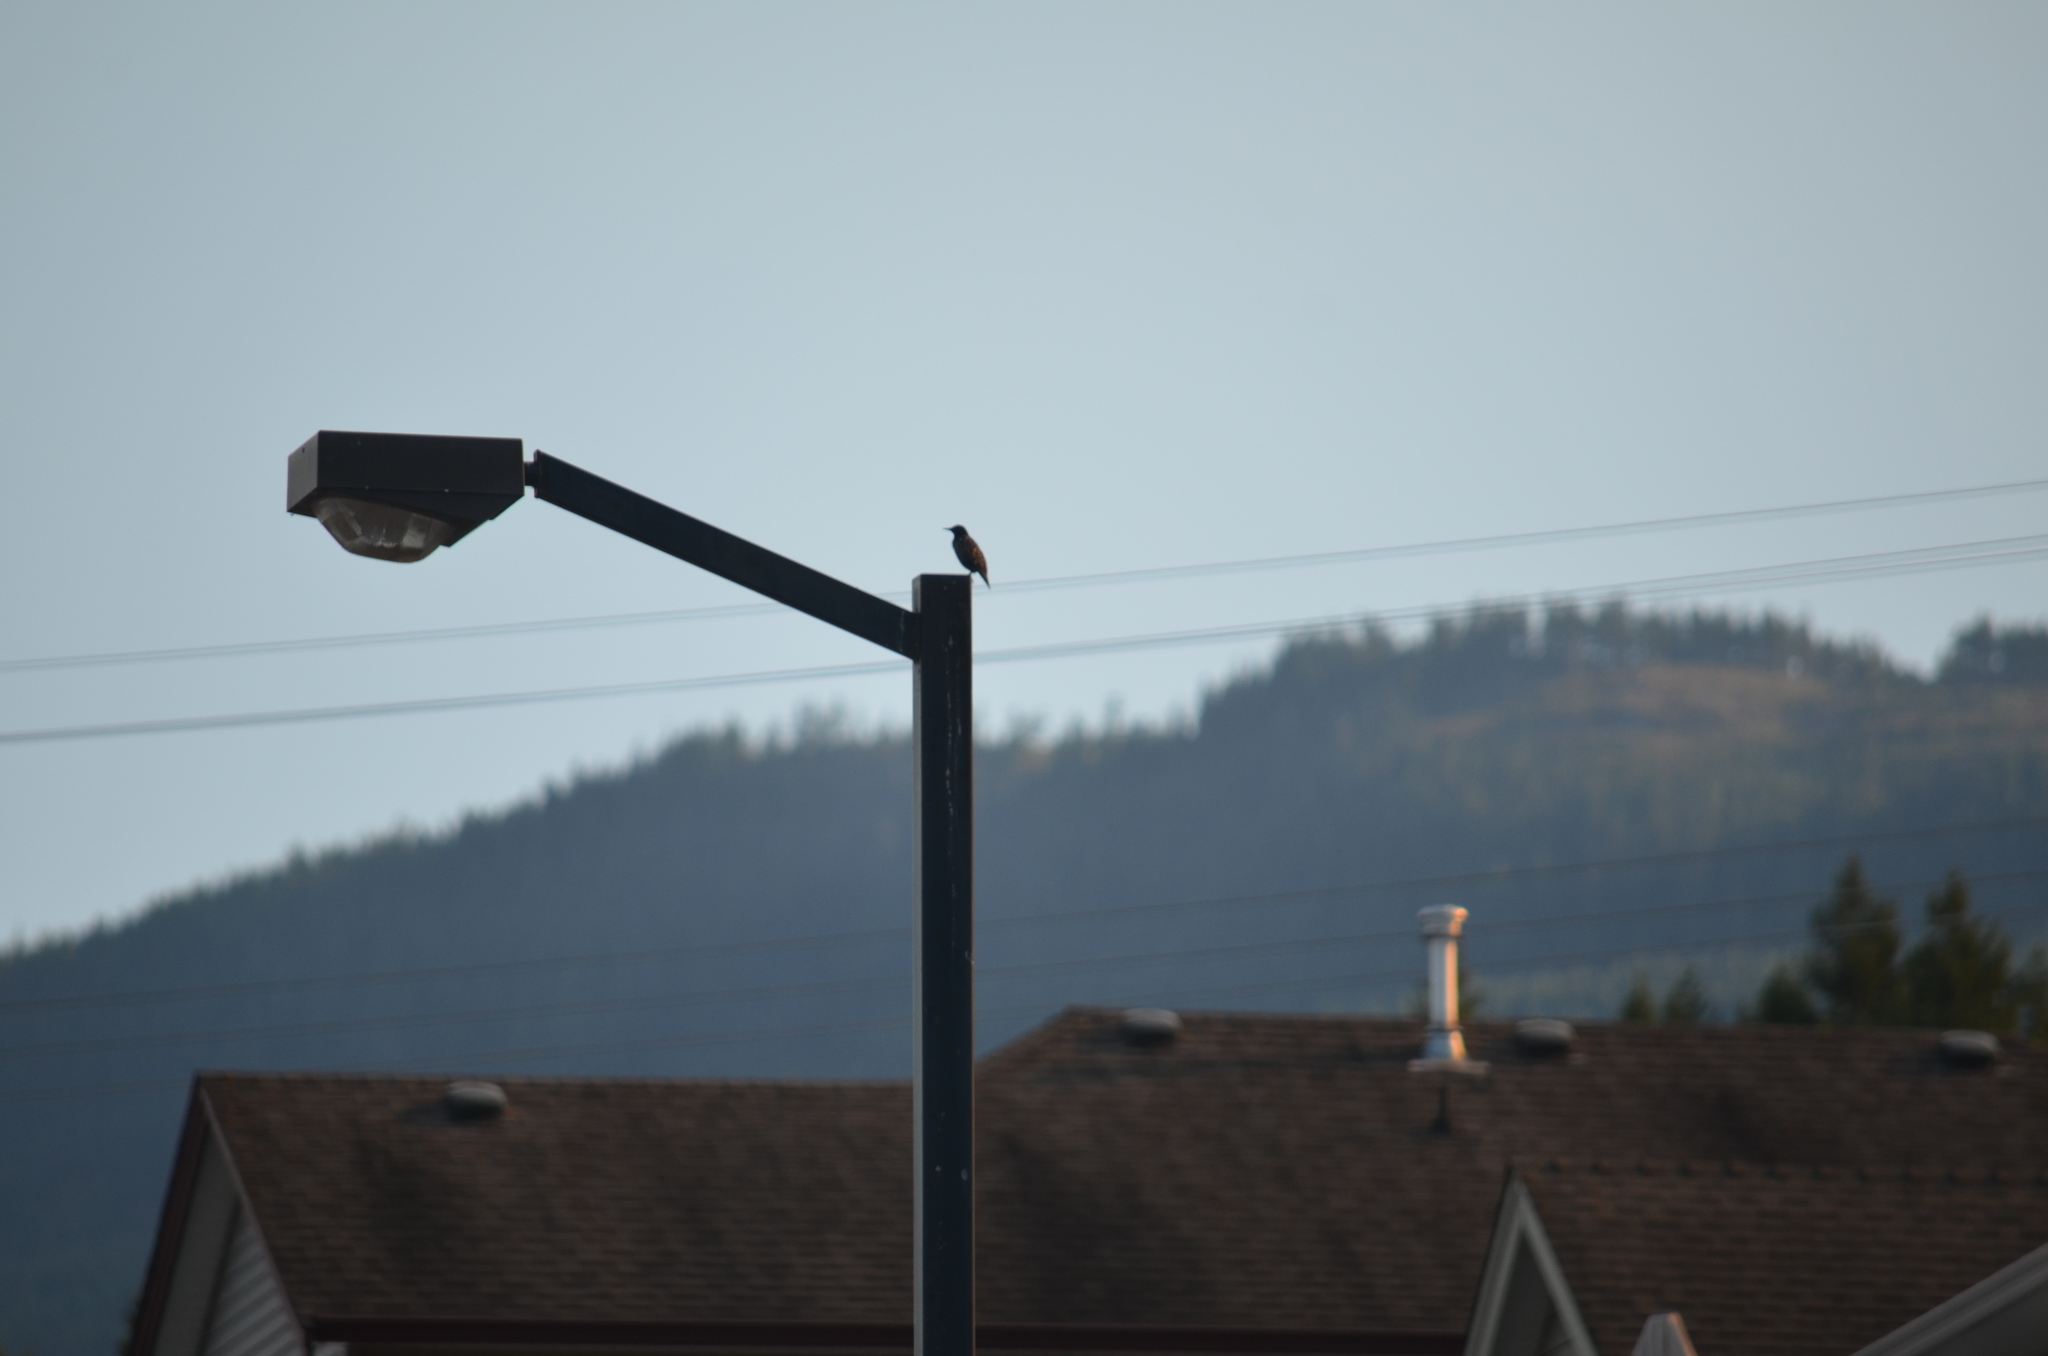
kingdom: Animalia
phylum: Chordata
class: Aves
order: Passeriformes
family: Sturnidae
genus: Sturnus
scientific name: Sturnus vulgaris
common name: Common starling
